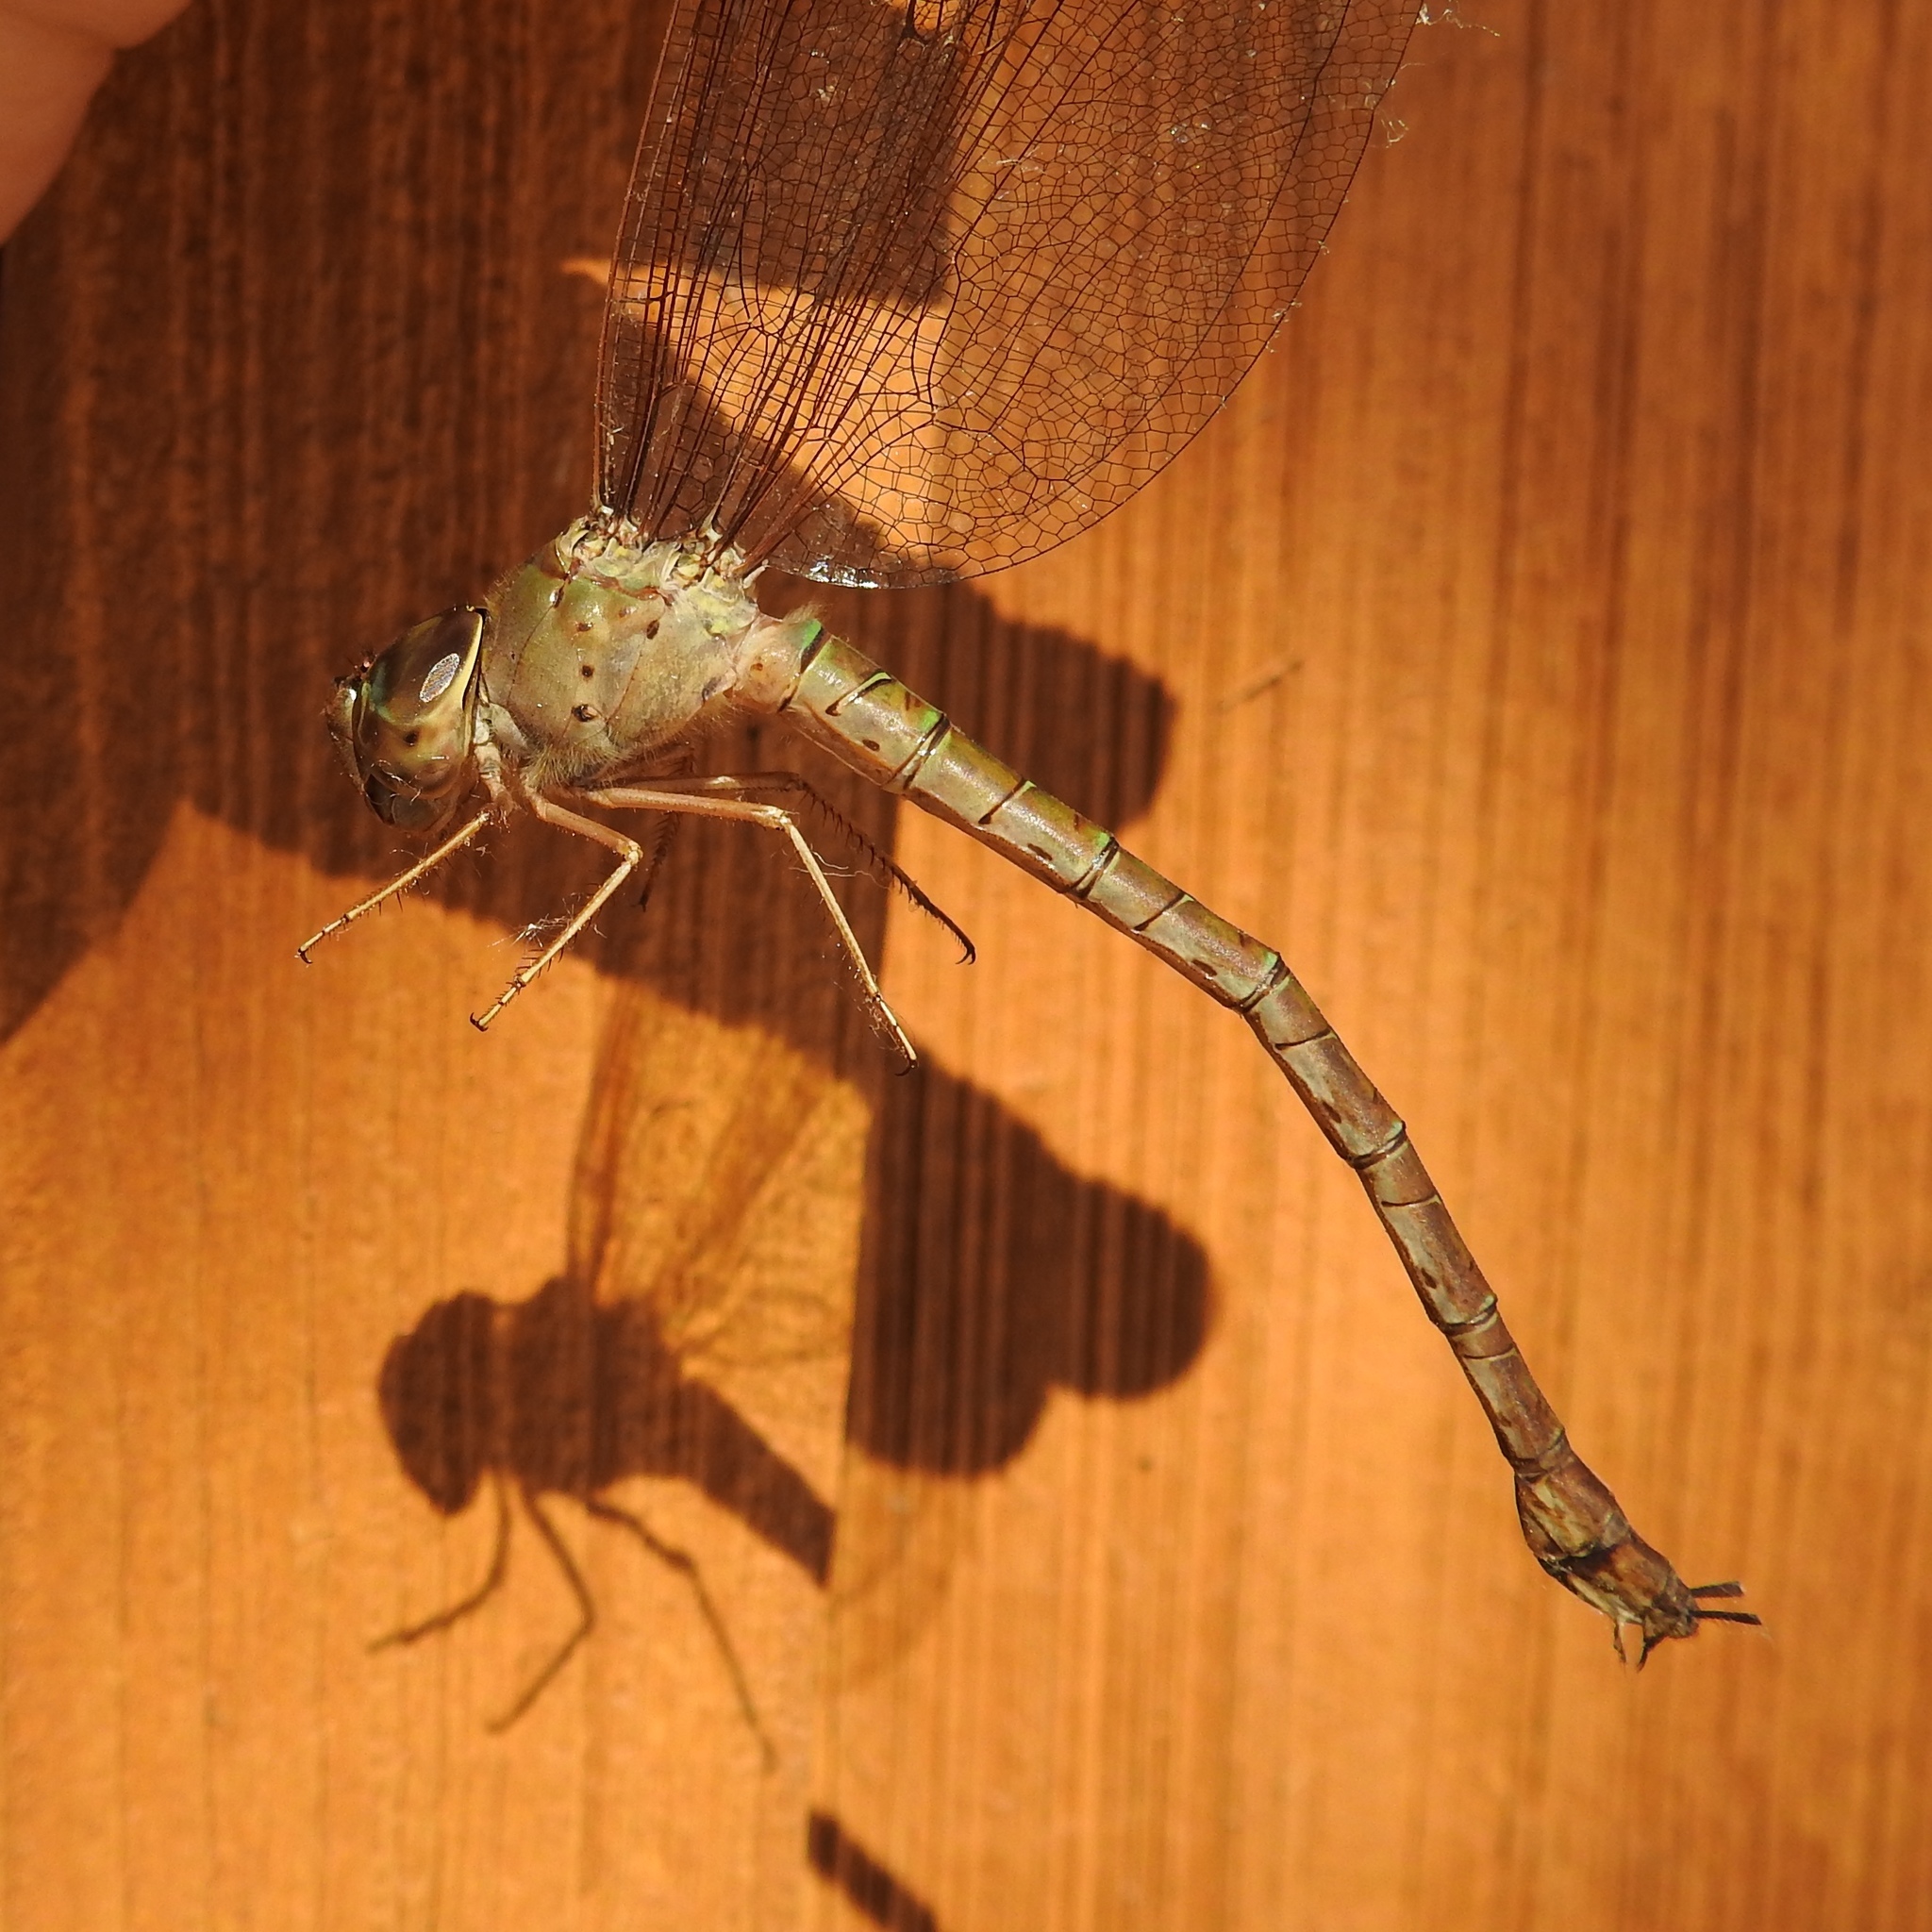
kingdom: Animalia
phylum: Arthropoda
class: Insecta
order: Odonata
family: Aeshnidae
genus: Gynacantha
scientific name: Gynacantha nervosa
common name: Twilight darner
